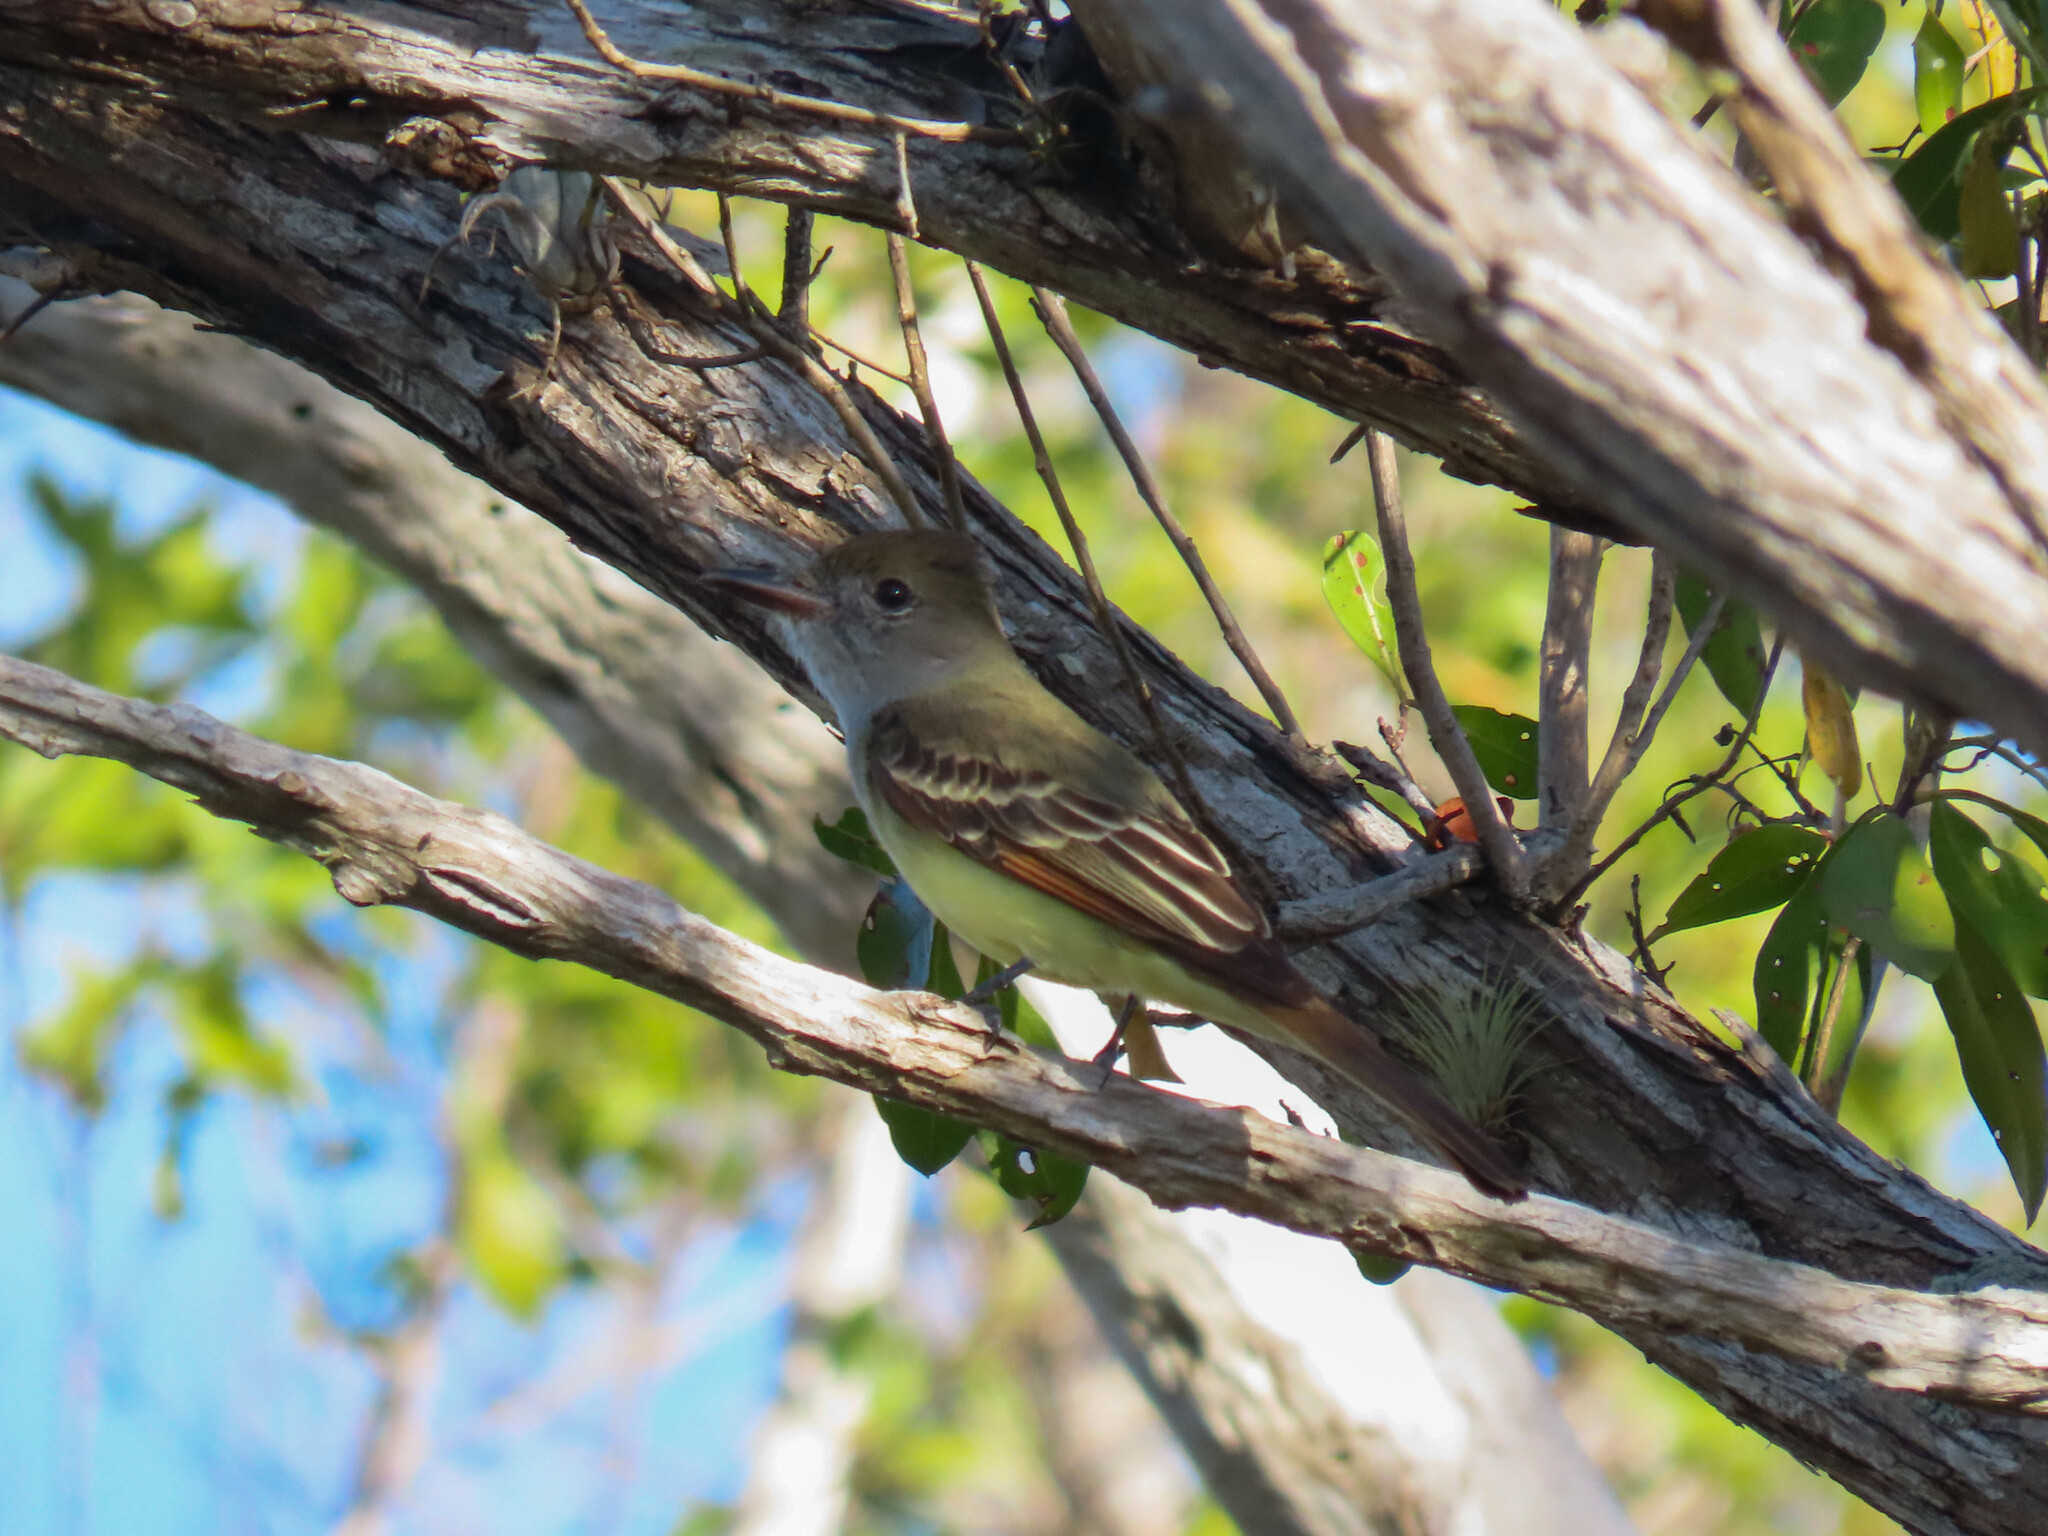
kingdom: Animalia
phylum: Chordata
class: Aves
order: Passeriformes
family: Tyrannidae
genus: Myiarchus
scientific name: Myiarchus crinitus
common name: Great crested flycatcher
